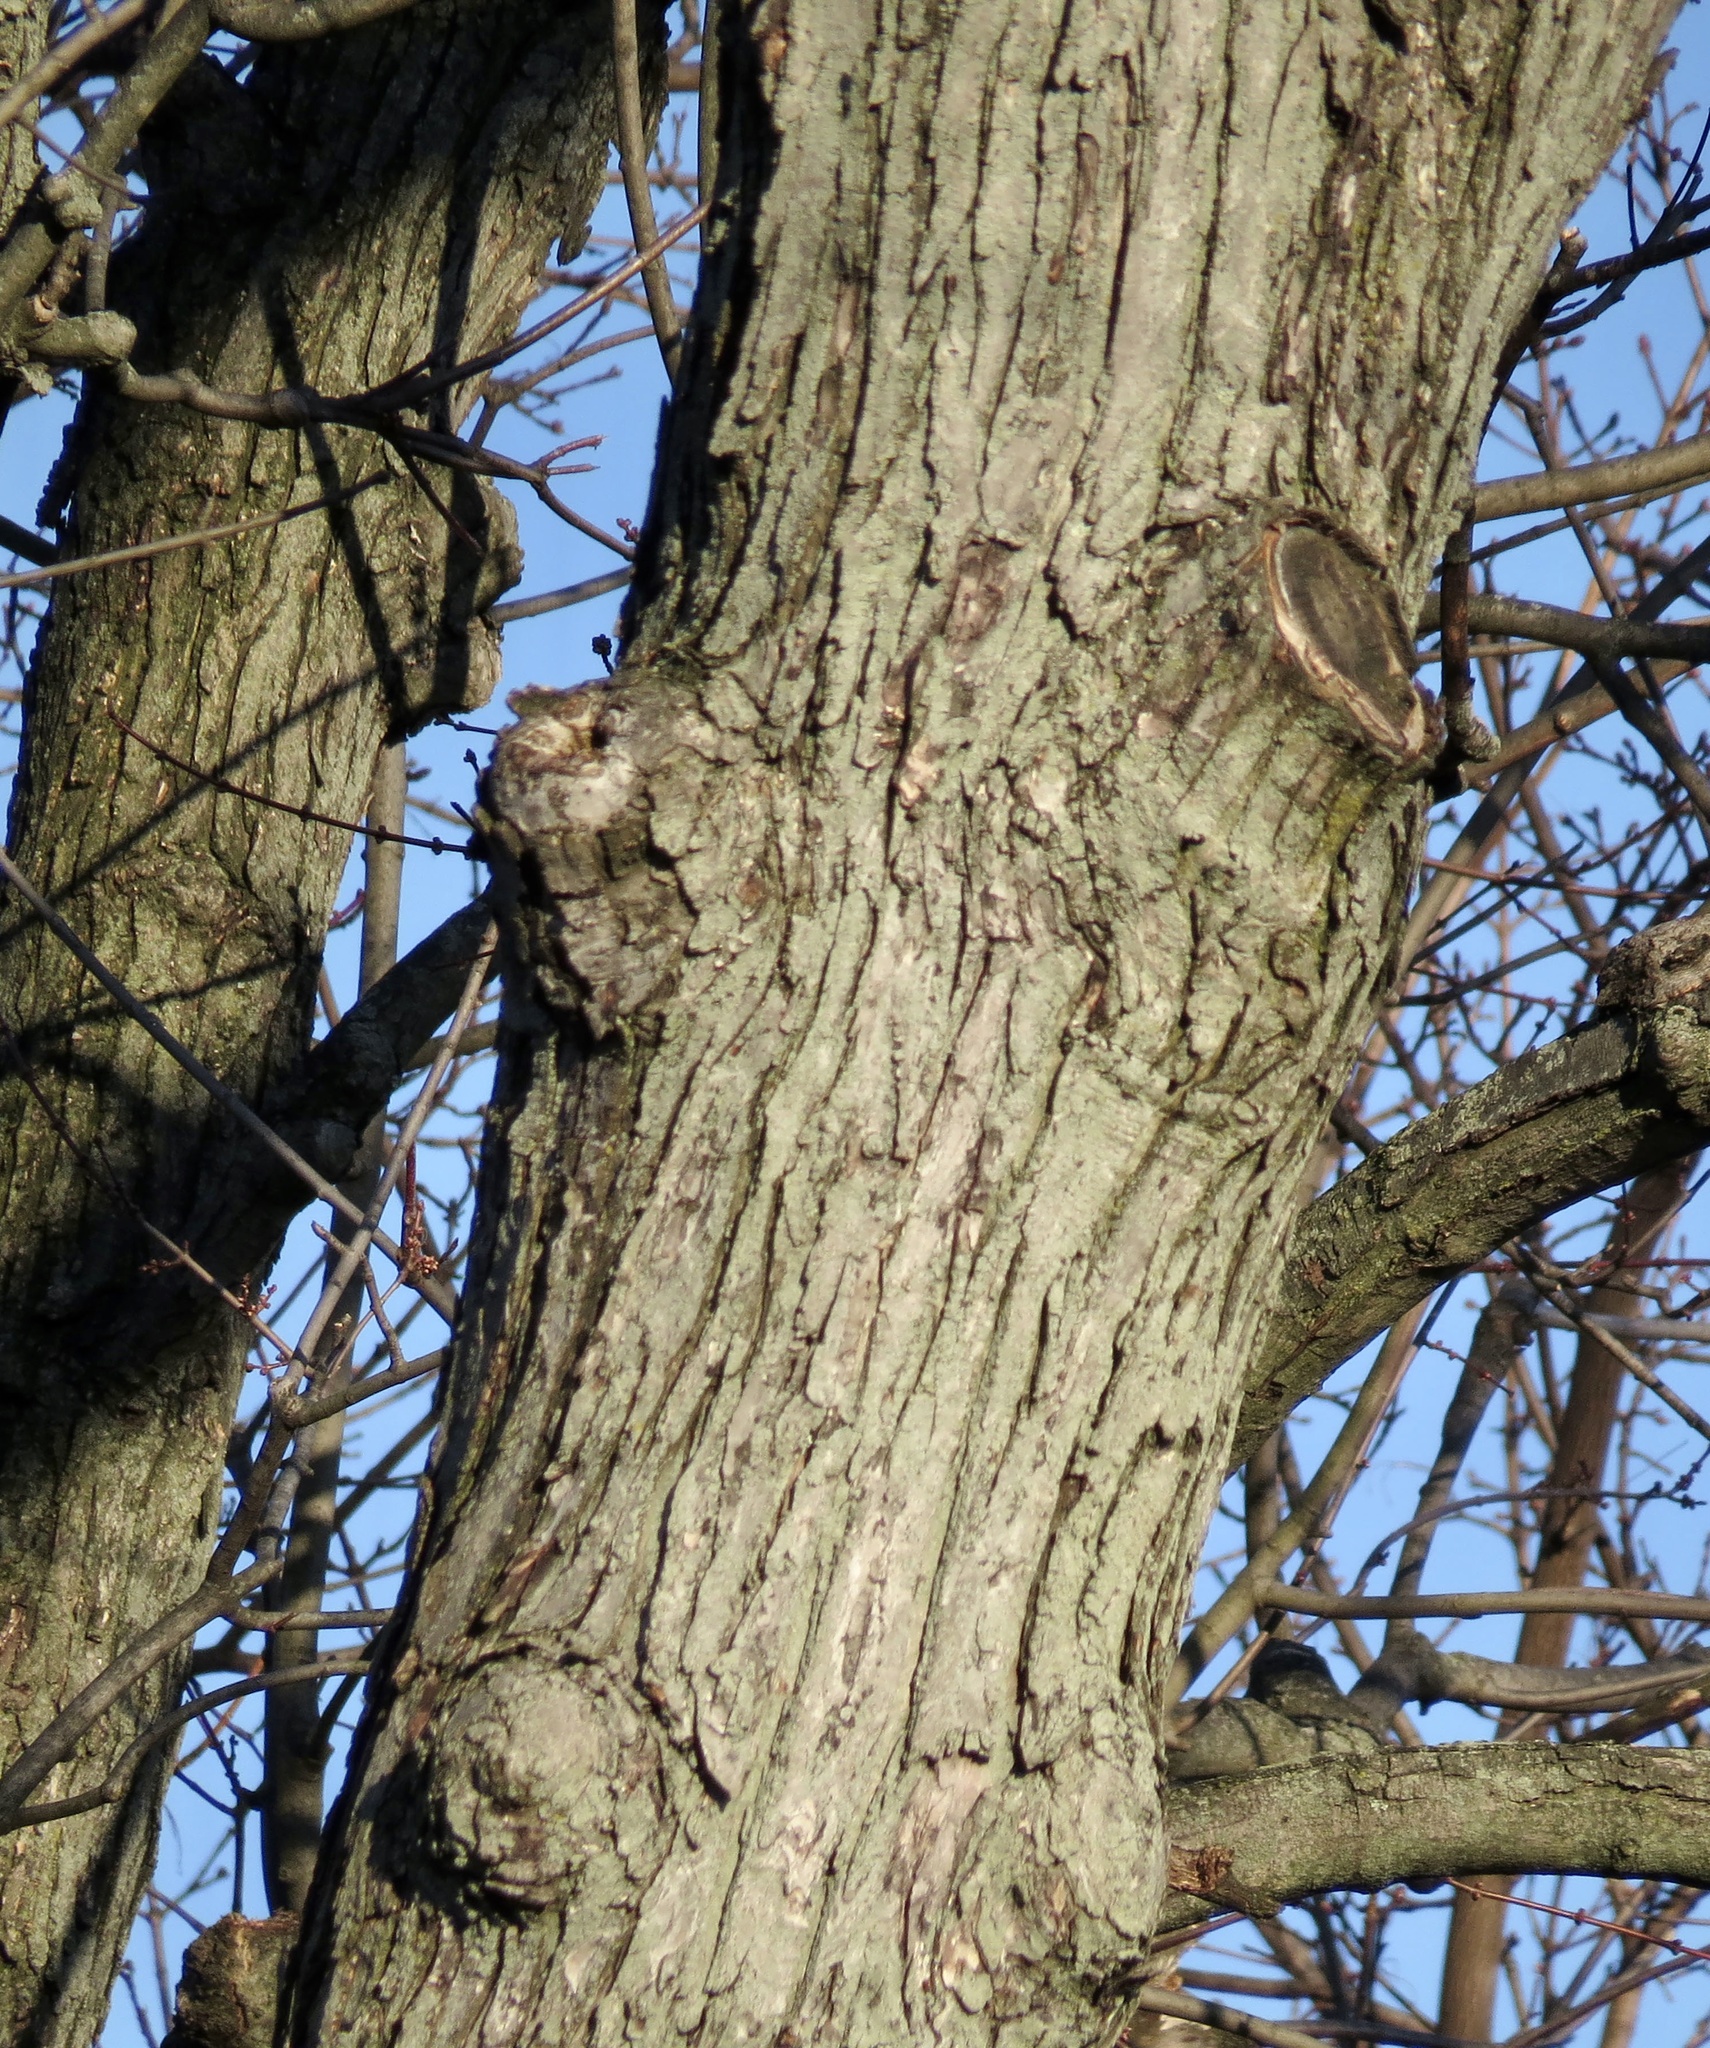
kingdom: Plantae
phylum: Tracheophyta
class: Magnoliopsida
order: Sapindales
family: Sapindaceae
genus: Acer
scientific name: Acer
